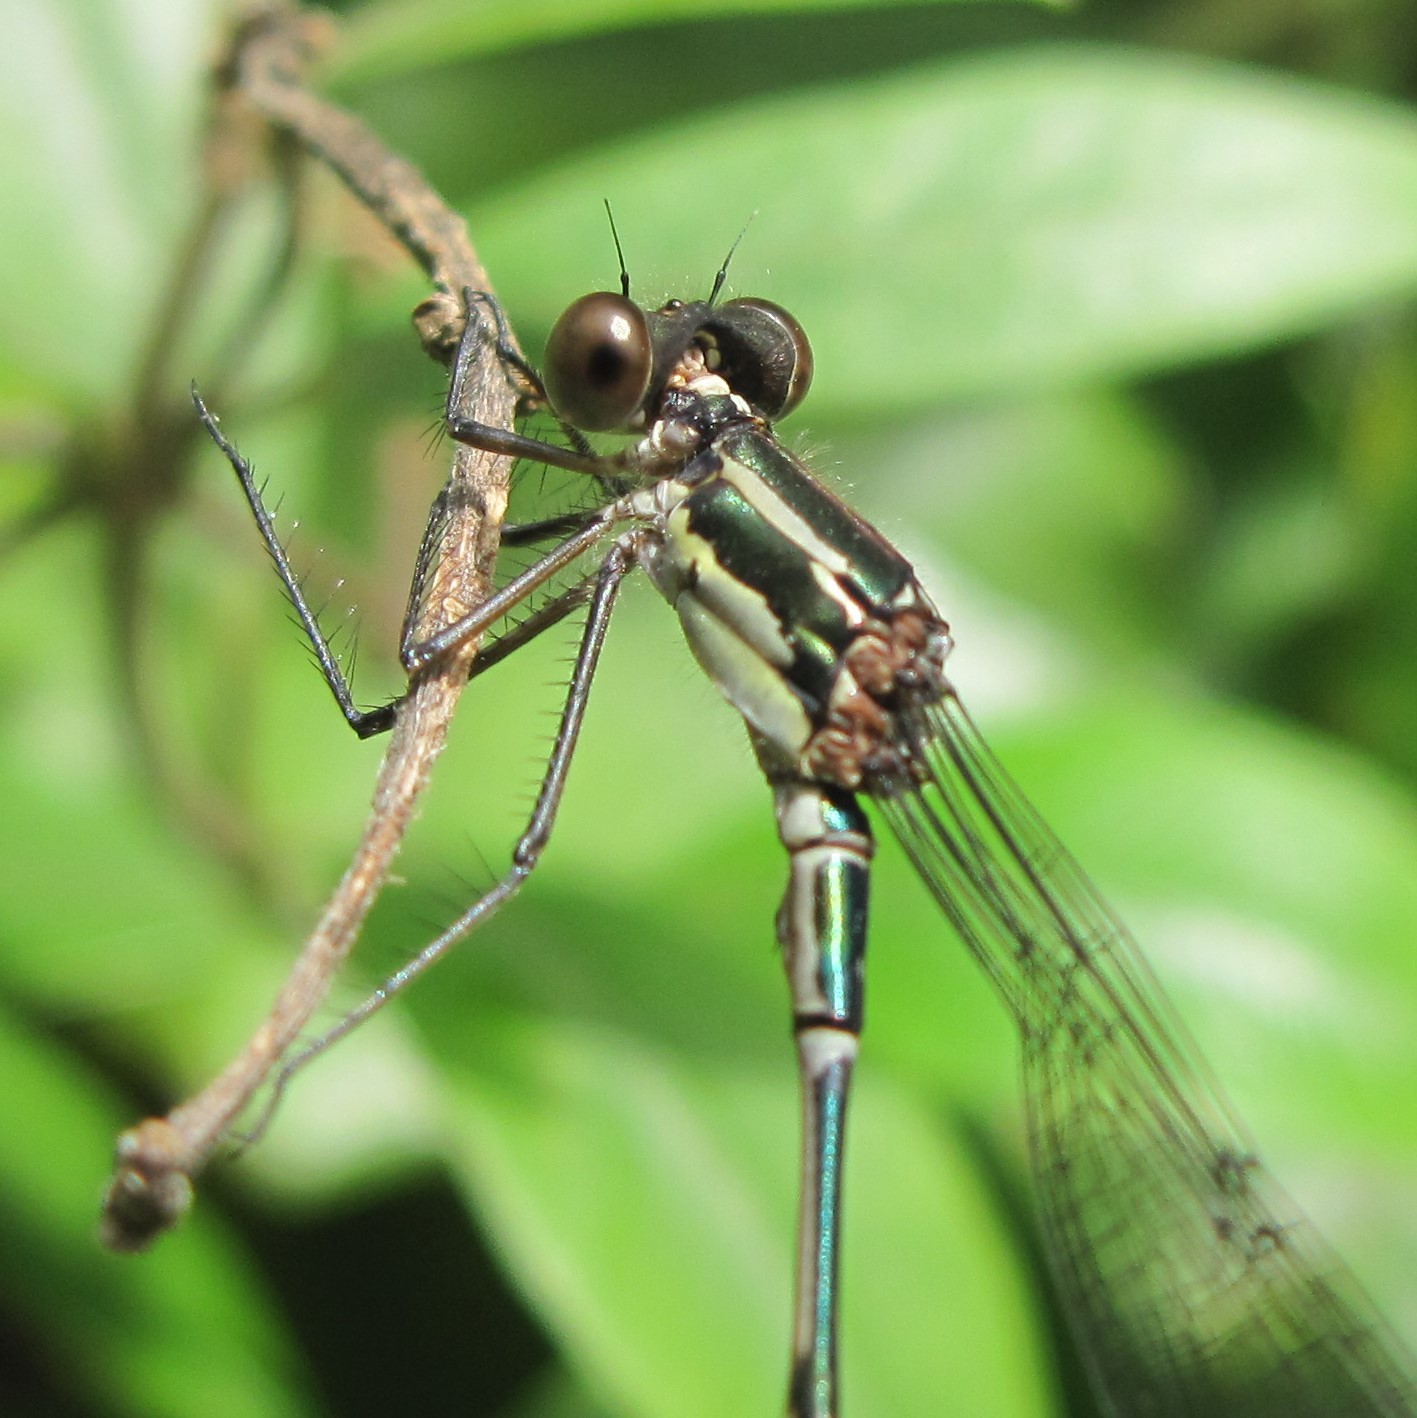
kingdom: Animalia
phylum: Arthropoda
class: Insecta
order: Odonata
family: Lestidae
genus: Austrolestes
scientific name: Austrolestes colensonis
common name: Blue damselfly
